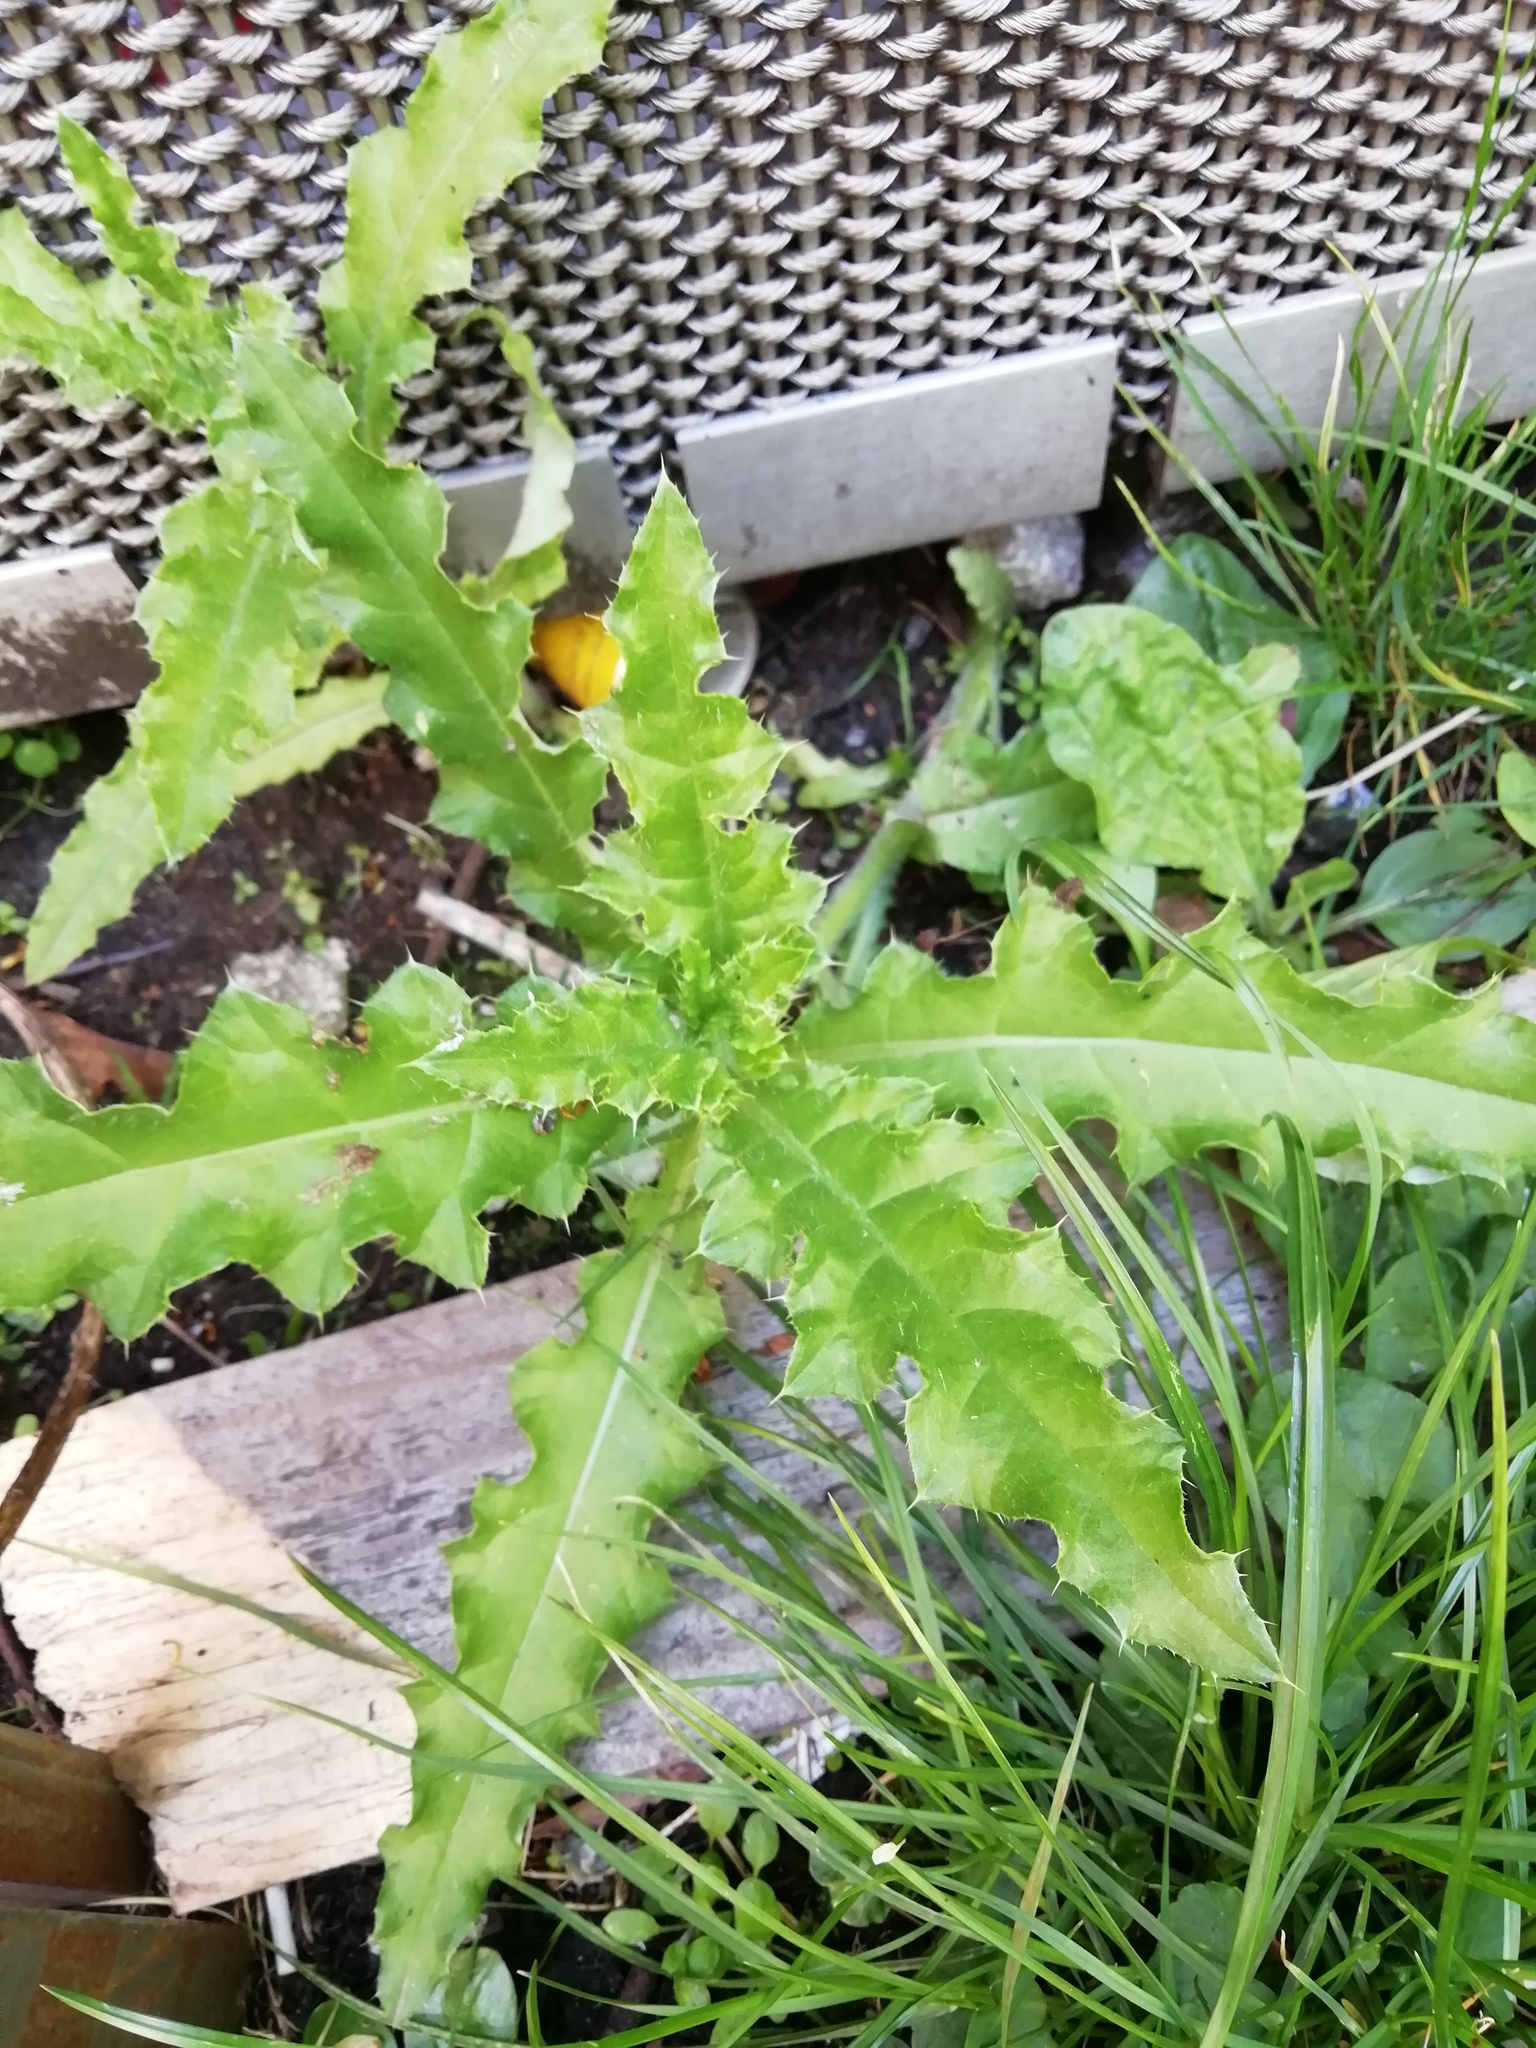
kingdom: Plantae
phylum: Tracheophyta
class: Magnoliopsida
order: Asterales
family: Asteraceae
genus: Cirsium
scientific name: Cirsium arvense
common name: Creeping thistle
